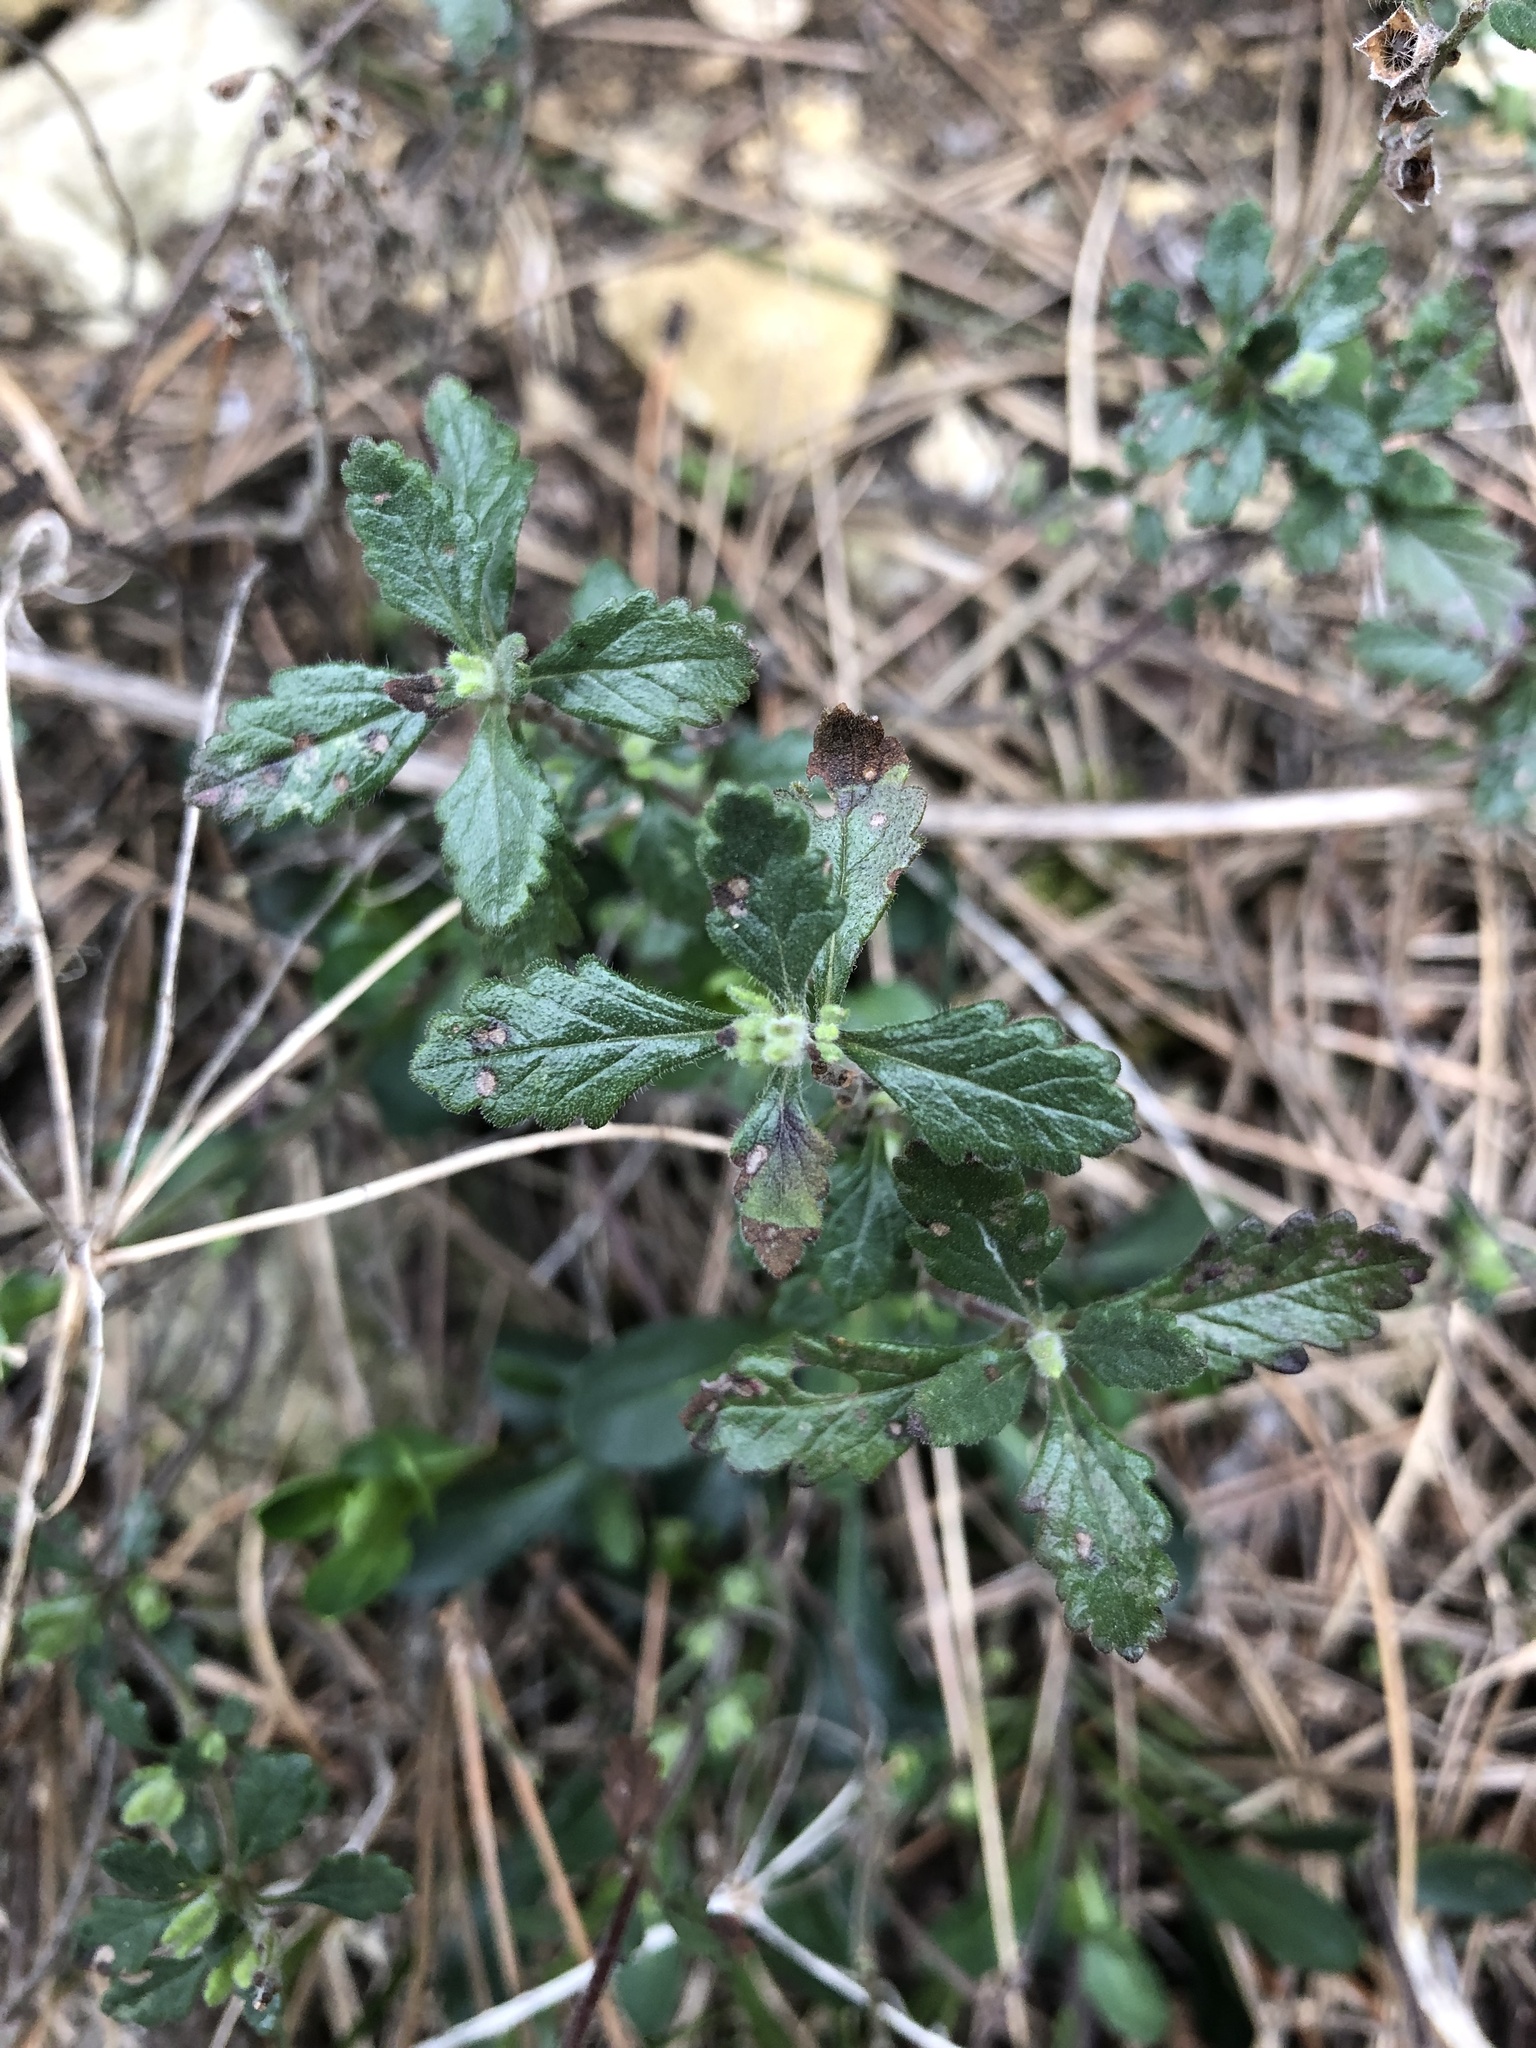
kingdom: Plantae
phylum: Tracheophyta
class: Magnoliopsida
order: Lamiales
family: Lamiaceae
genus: Teucrium
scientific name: Teucrium chamaedrys
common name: Wall germander
